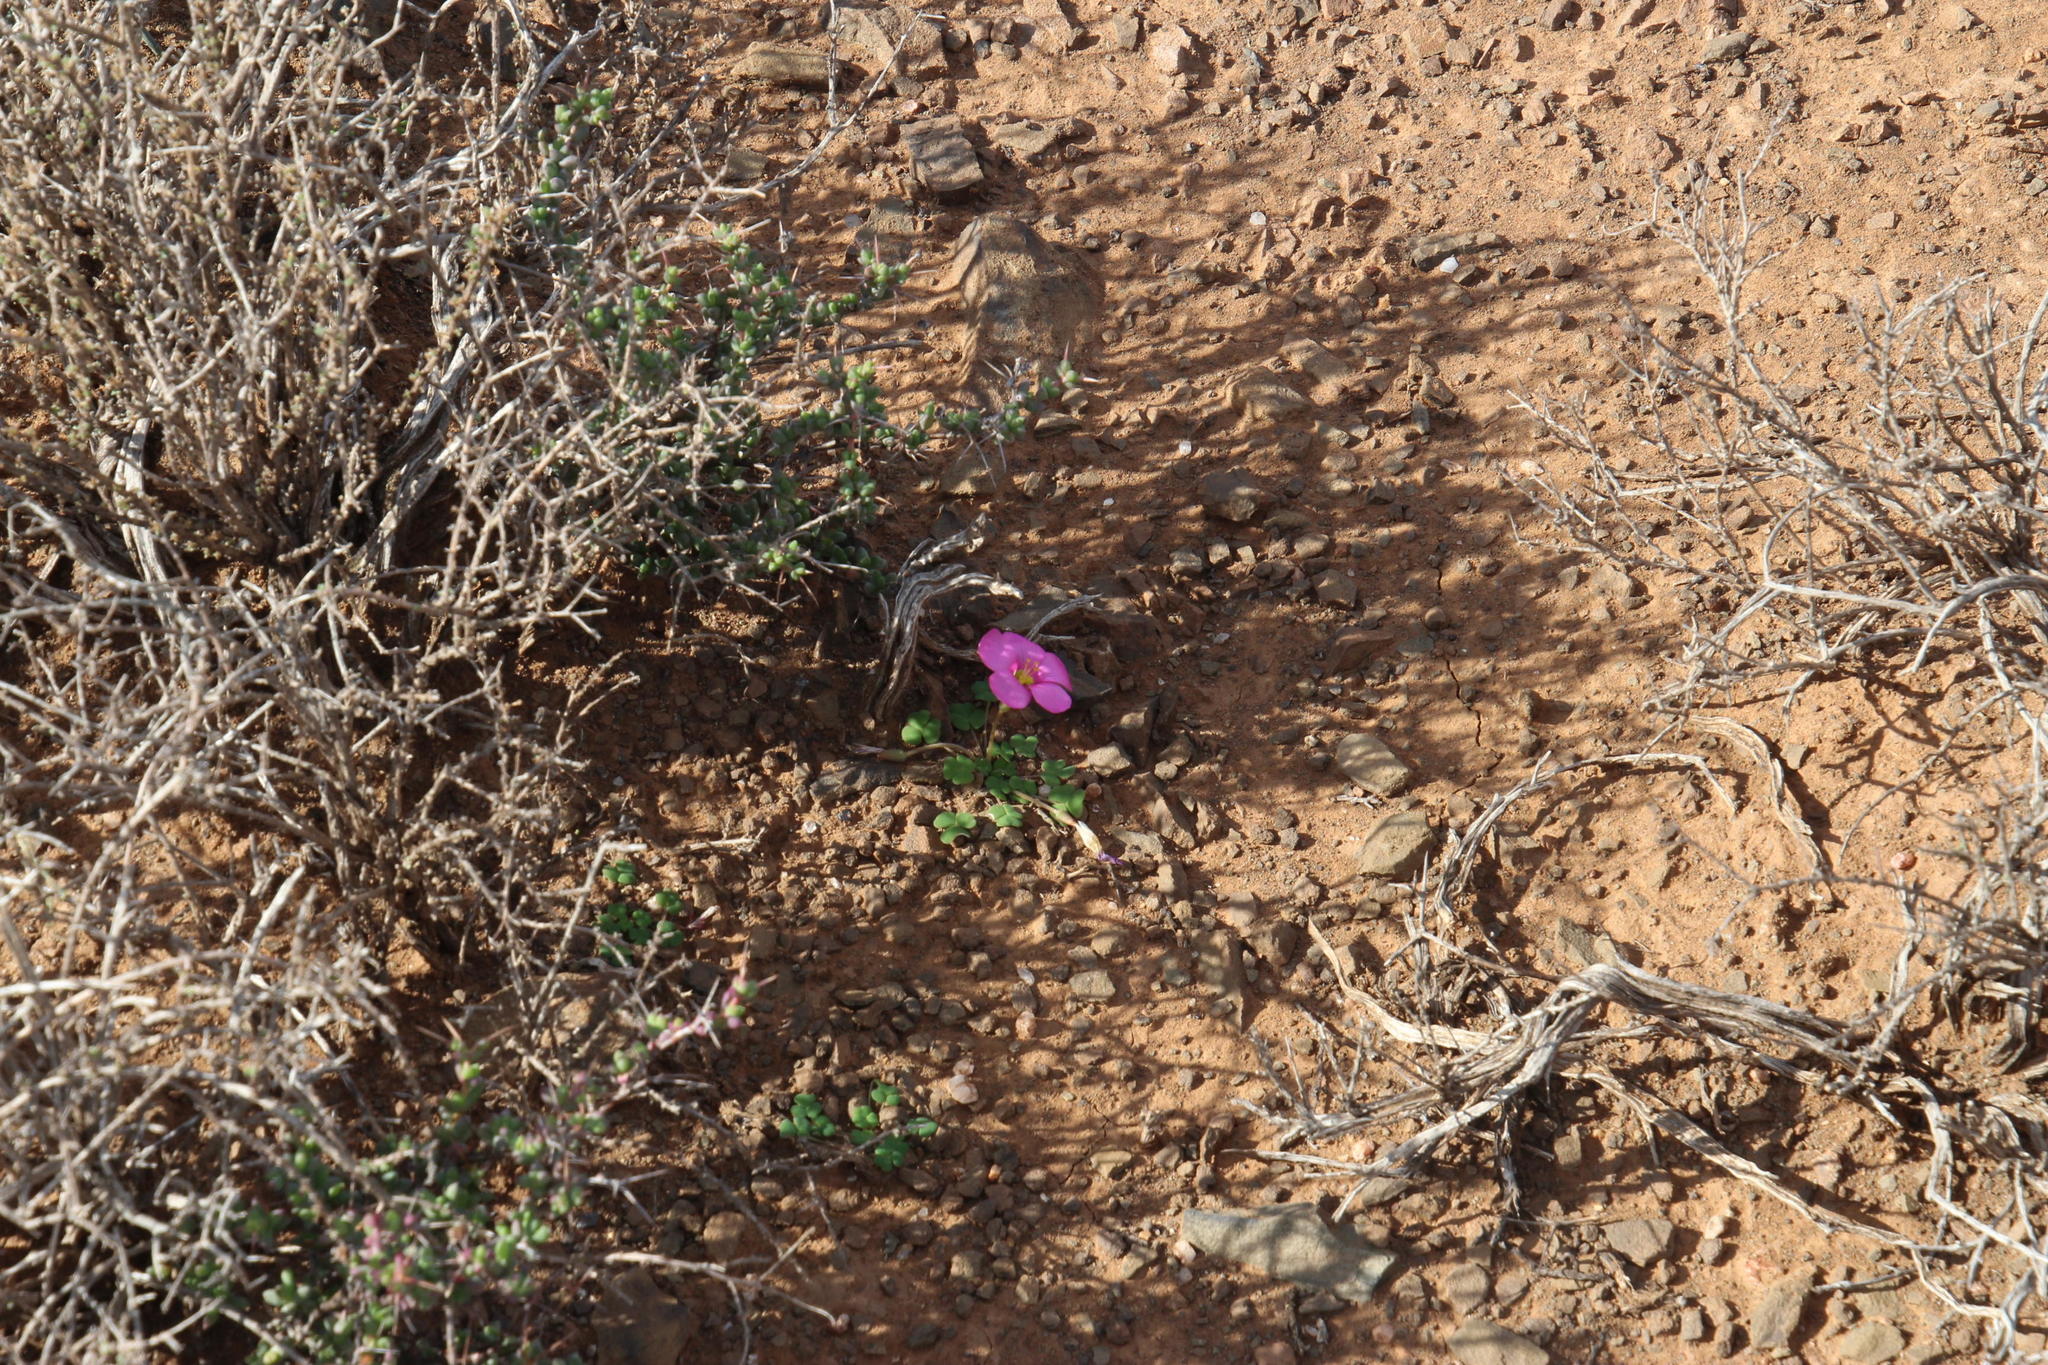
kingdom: Plantae
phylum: Tracheophyta
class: Magnoliopsida
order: Oxalidales
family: Oxalidaceae
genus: Oxalis
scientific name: Oxalis fergusoniae
